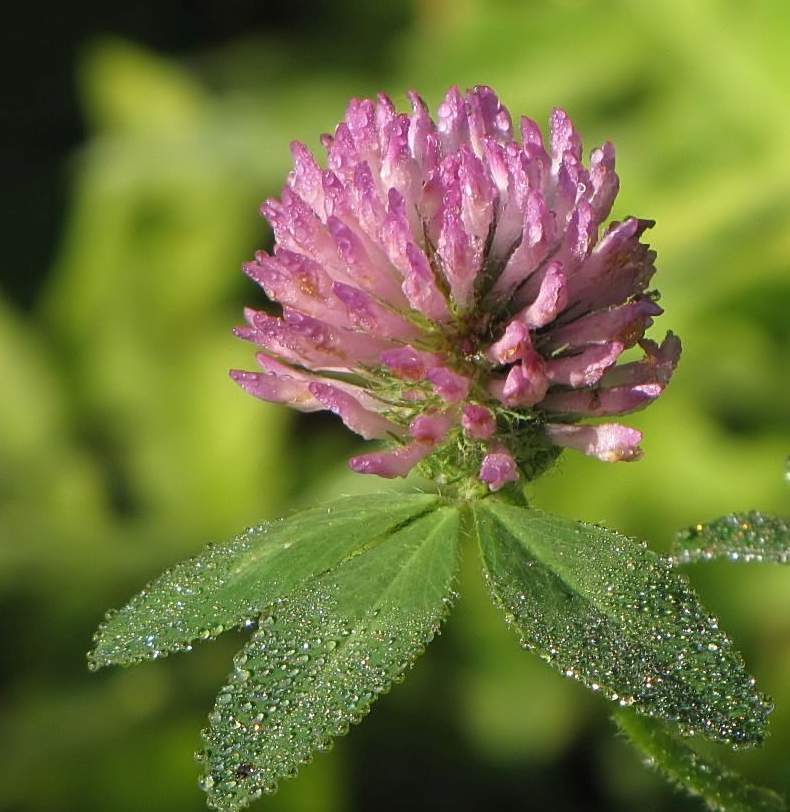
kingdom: Plantae
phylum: Tracheophyta
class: Magnoliopsida
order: Fabales
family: Fabaceae
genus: Trifolium
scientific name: Trifolium pratense
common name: Red clover
